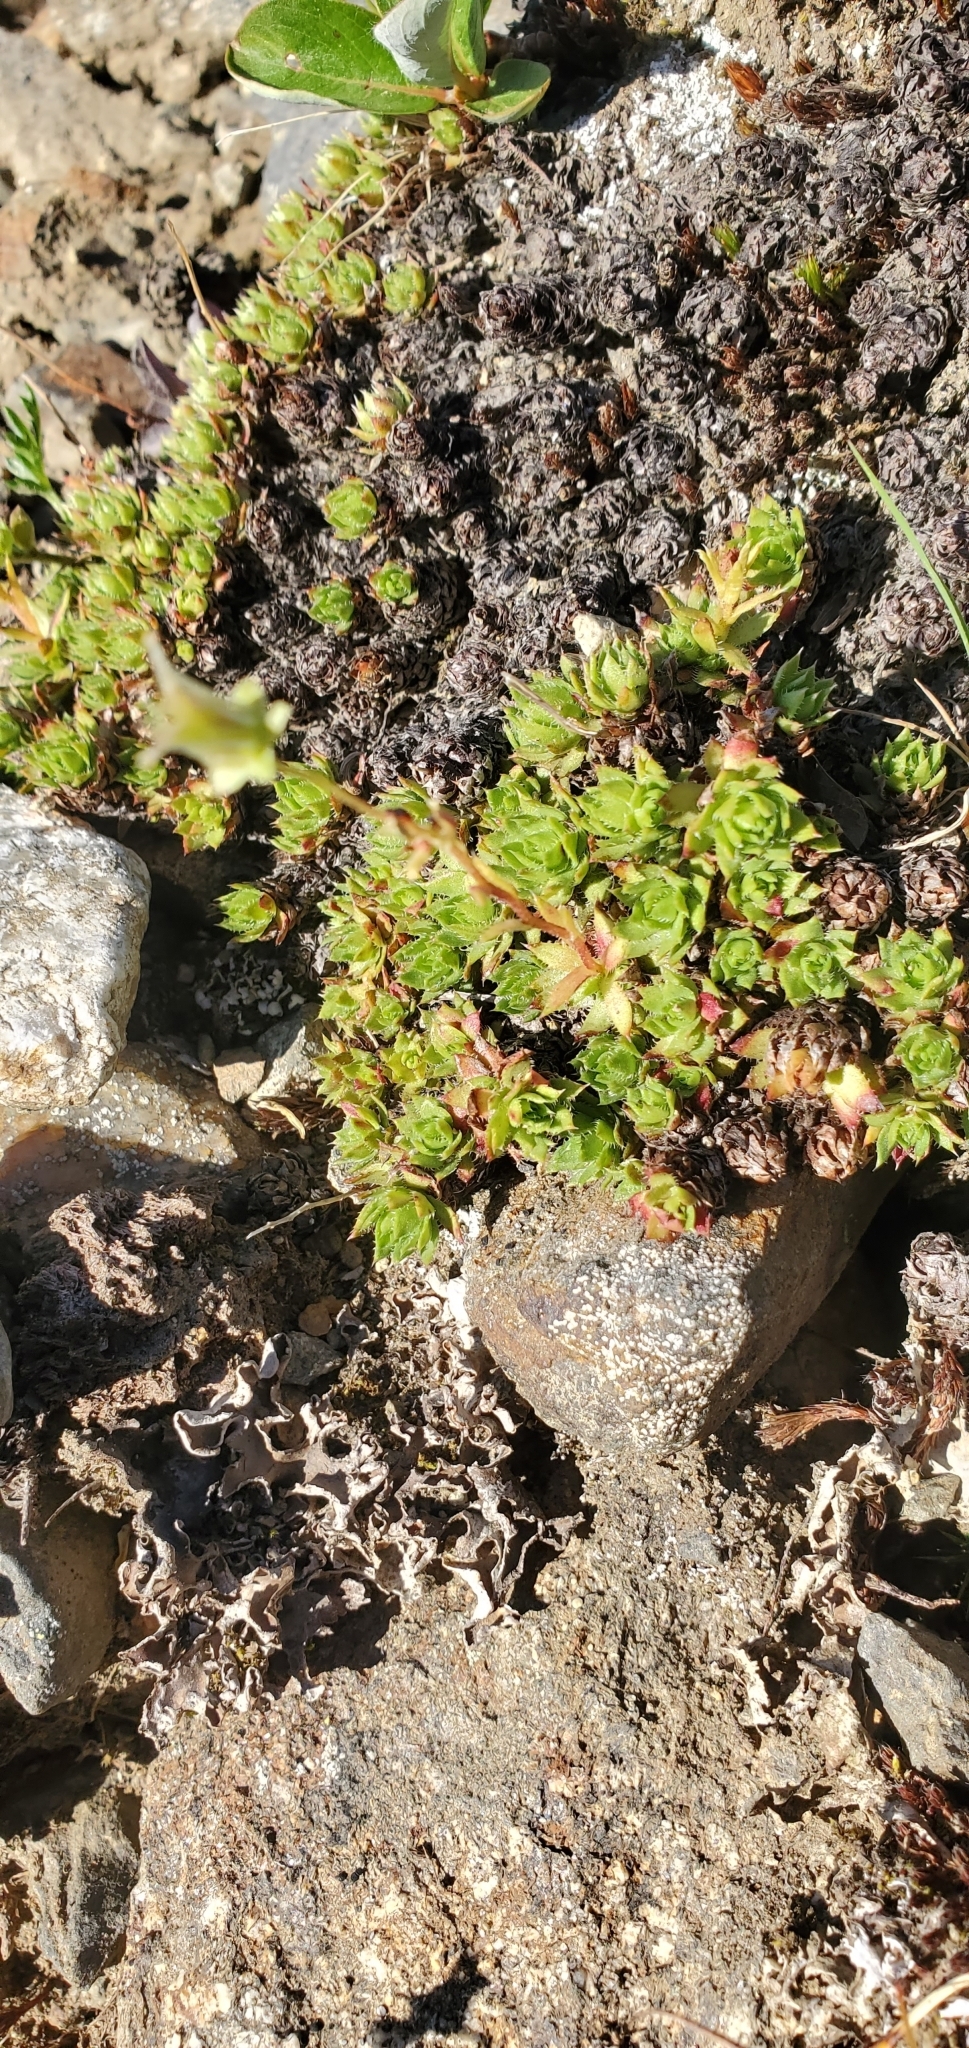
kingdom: Plantae
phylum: Tracheophyta
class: Magnoliopsida
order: Saxifragales
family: Saxifragaceae
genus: Saxifraga
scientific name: Saxifraga bronchialis
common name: Matted saxifrage
